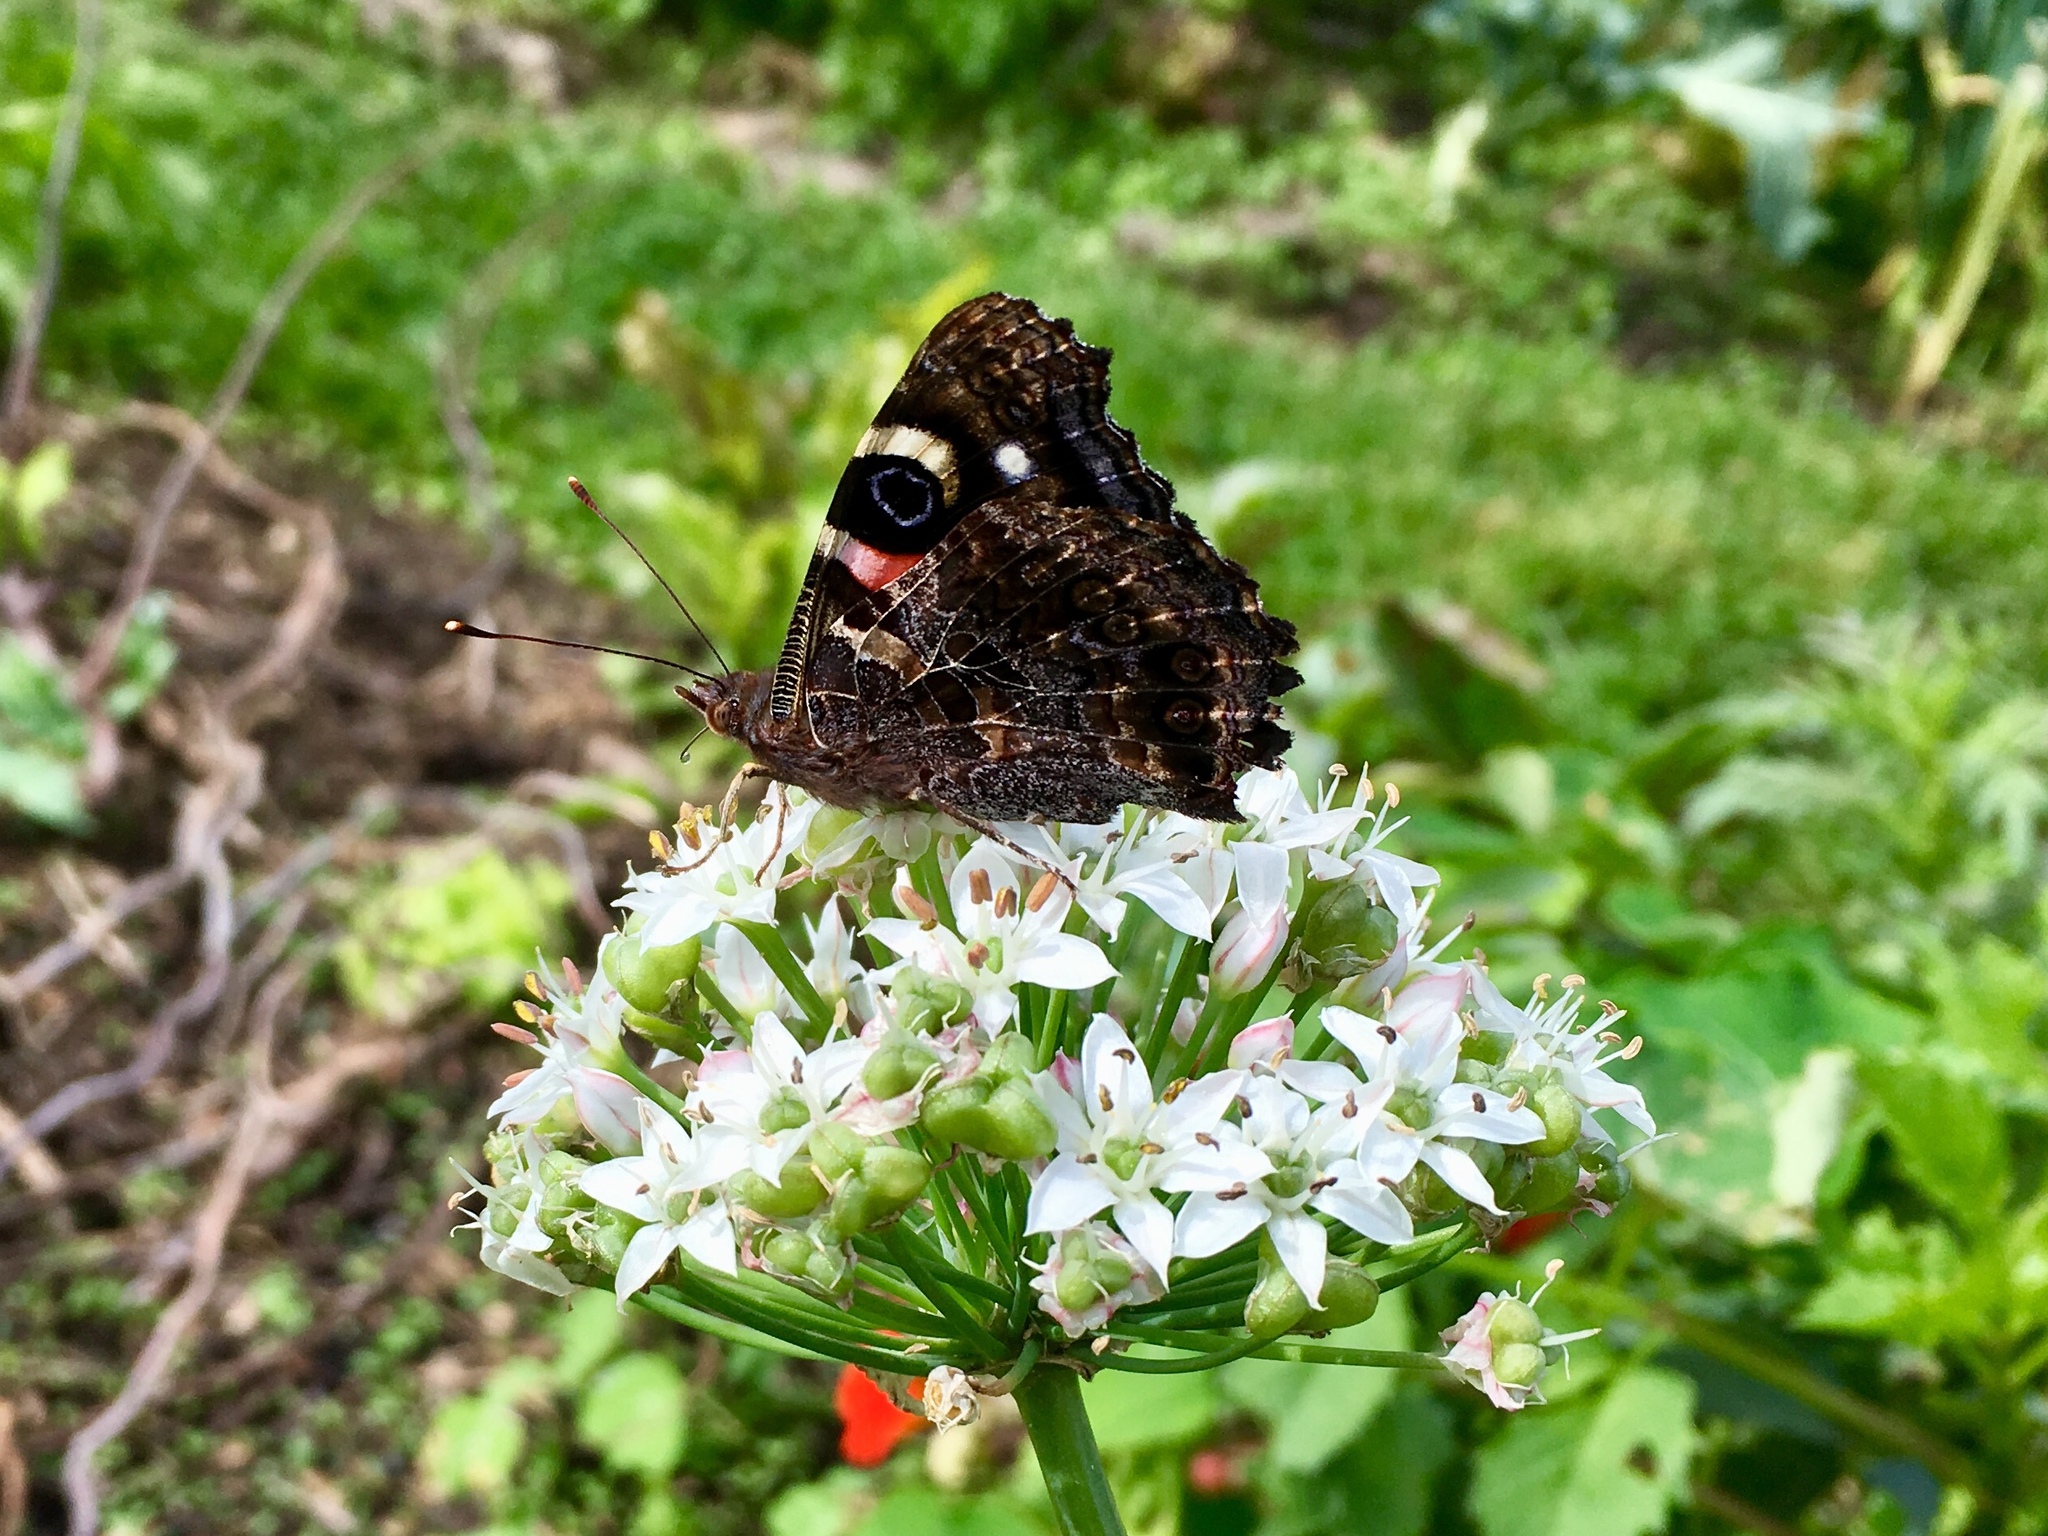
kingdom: Animalia
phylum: Arthropoda
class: Insecta
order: Lepidoptera
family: Nymphalidae
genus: Vanessa
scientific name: Vanessa gonerilla
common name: New zealand red admiral
